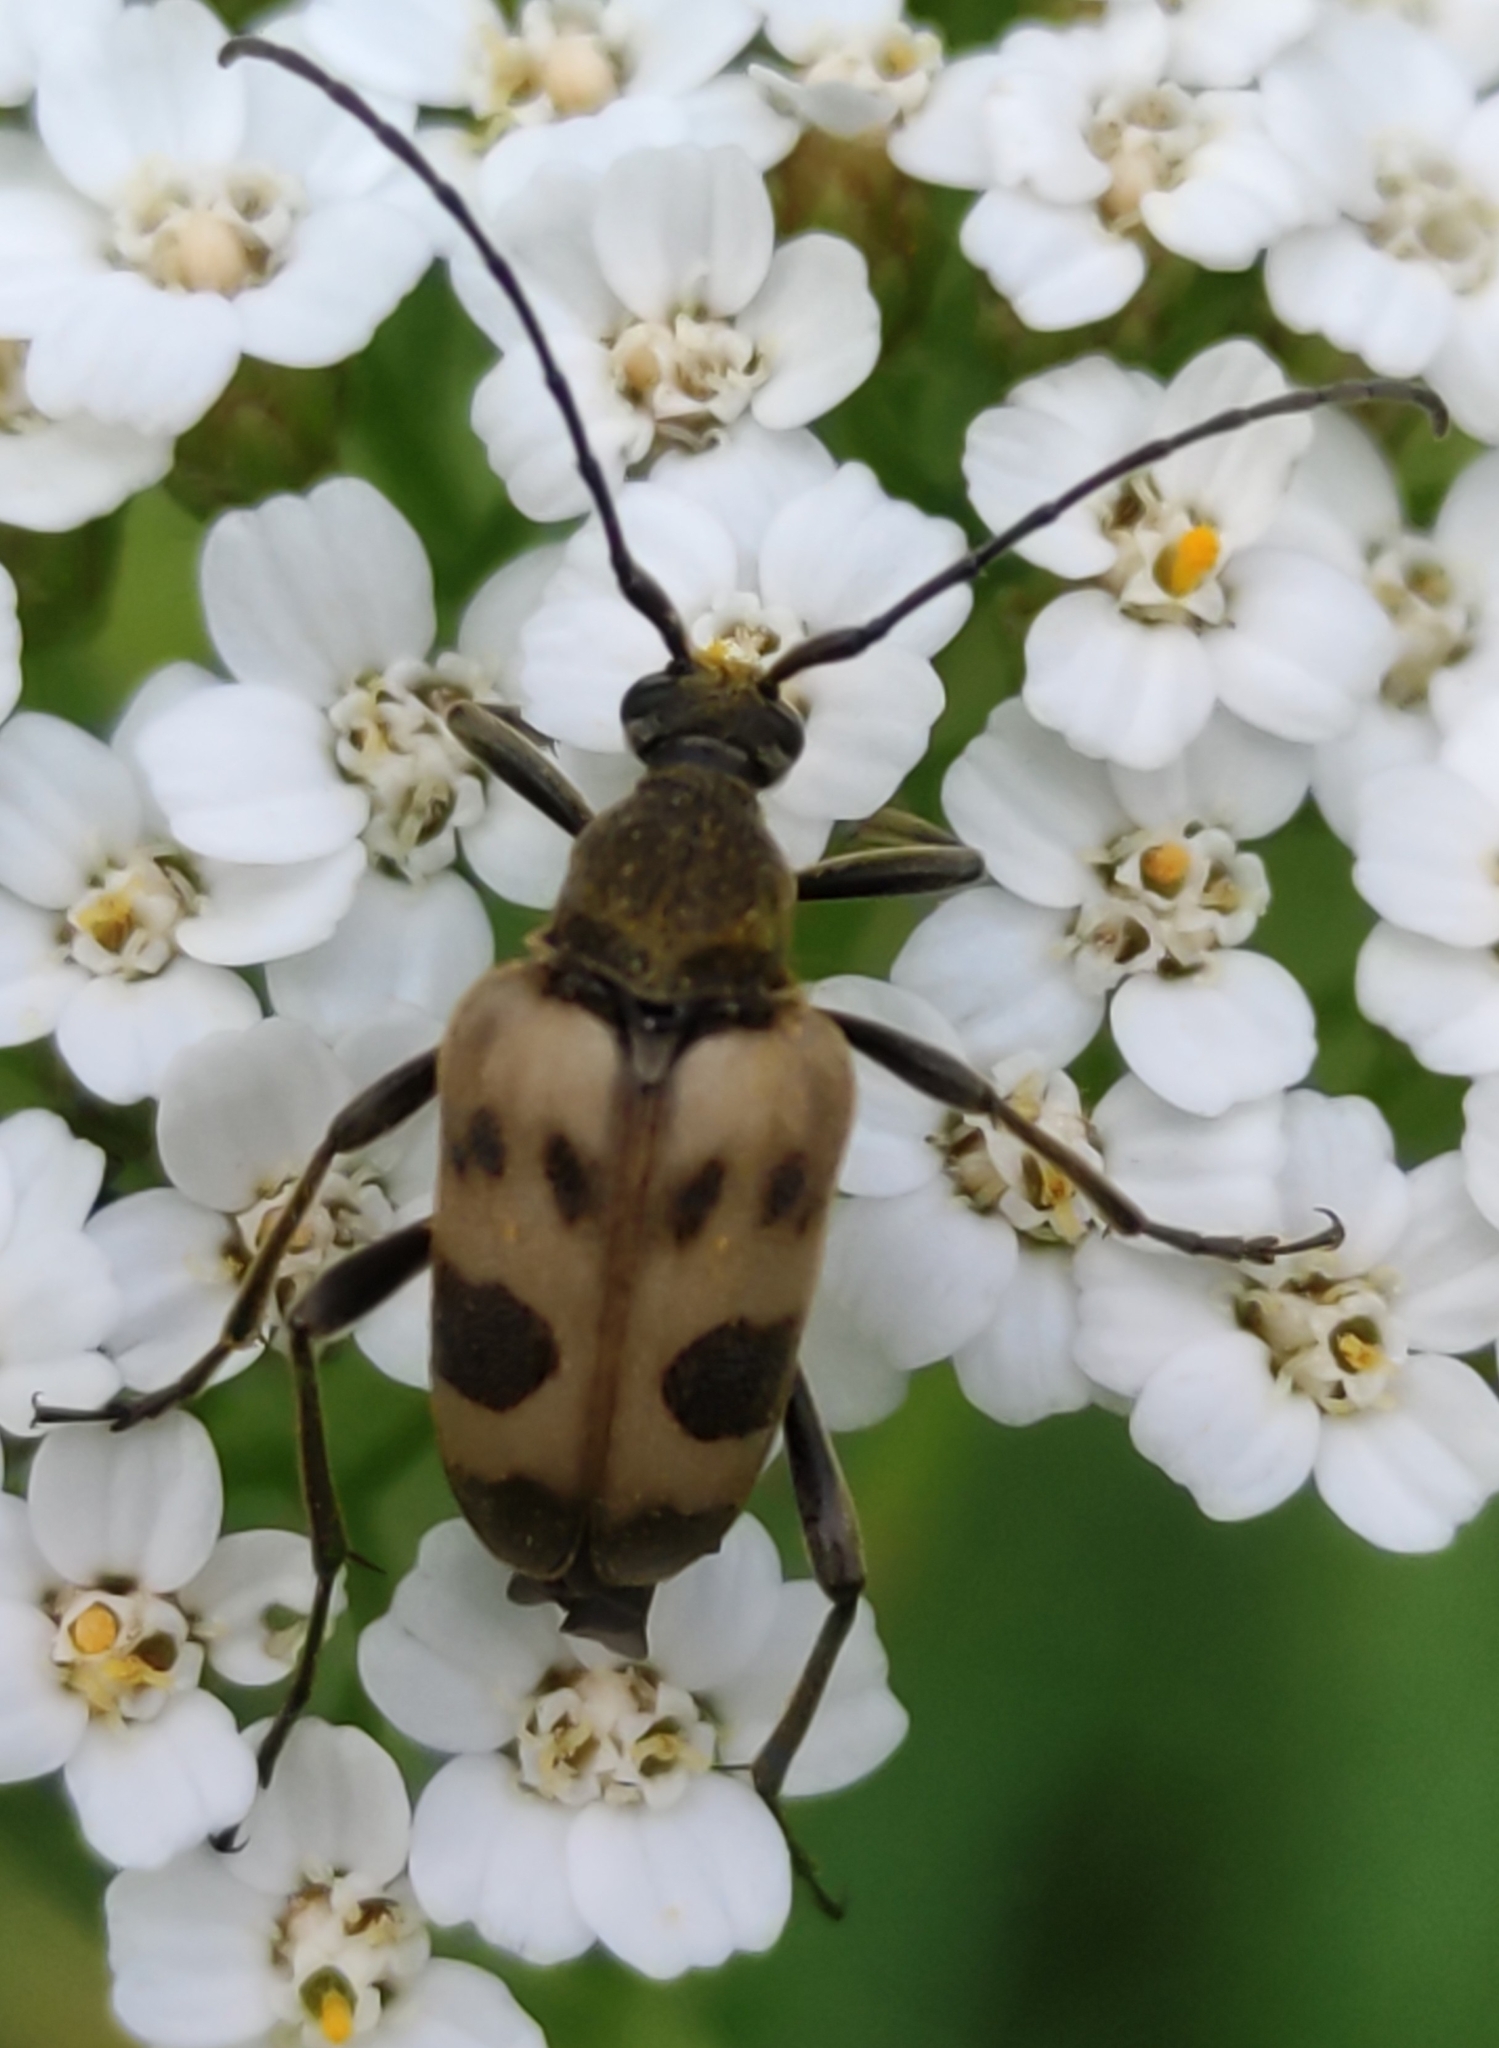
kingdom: Animalia
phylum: Arthropoda
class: Insecta
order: Coleoptera
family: Cerambycidae
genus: Pachytodes
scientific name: Pachytodes cerambyciformis
